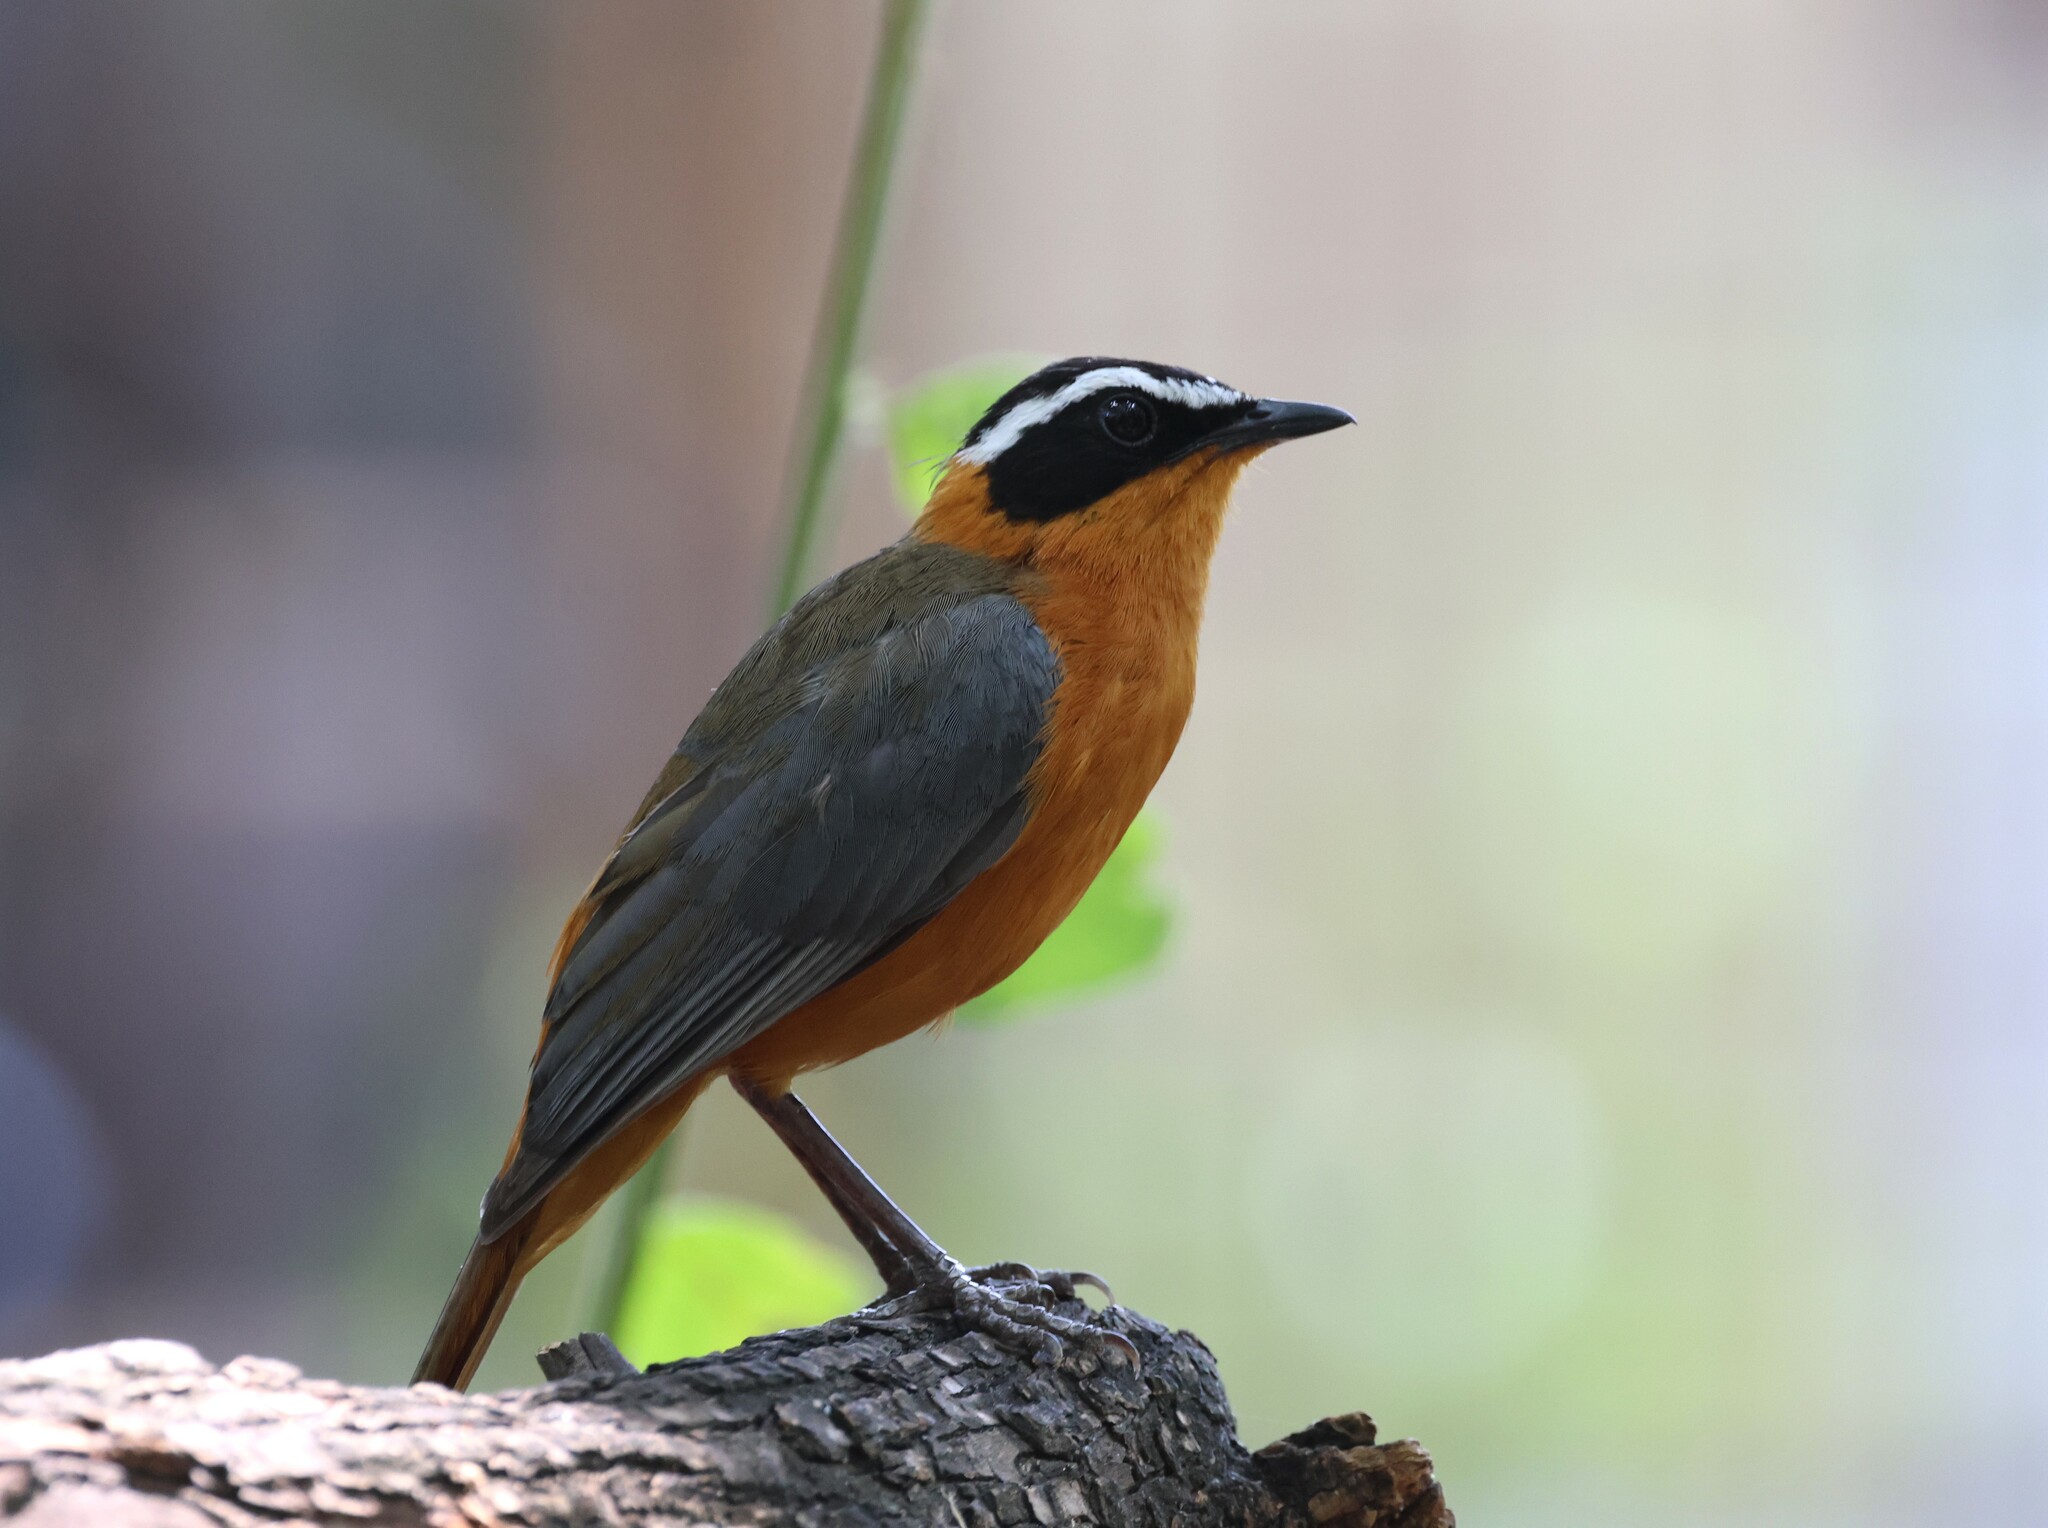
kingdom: Animalia
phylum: Chordata
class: Aves
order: Passeriformes
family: Muscicapidae
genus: Cossypha
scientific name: Cossypha heuglini
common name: White-browed robin-chat
